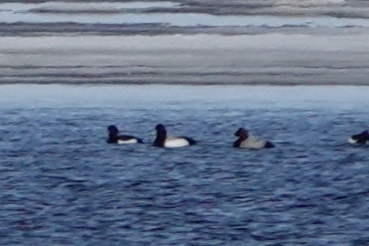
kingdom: Animalia
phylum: Chordata
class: Aves
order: Anseriformes
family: Anatidae
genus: Aythya
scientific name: Aythya ferina
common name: Common pochard
